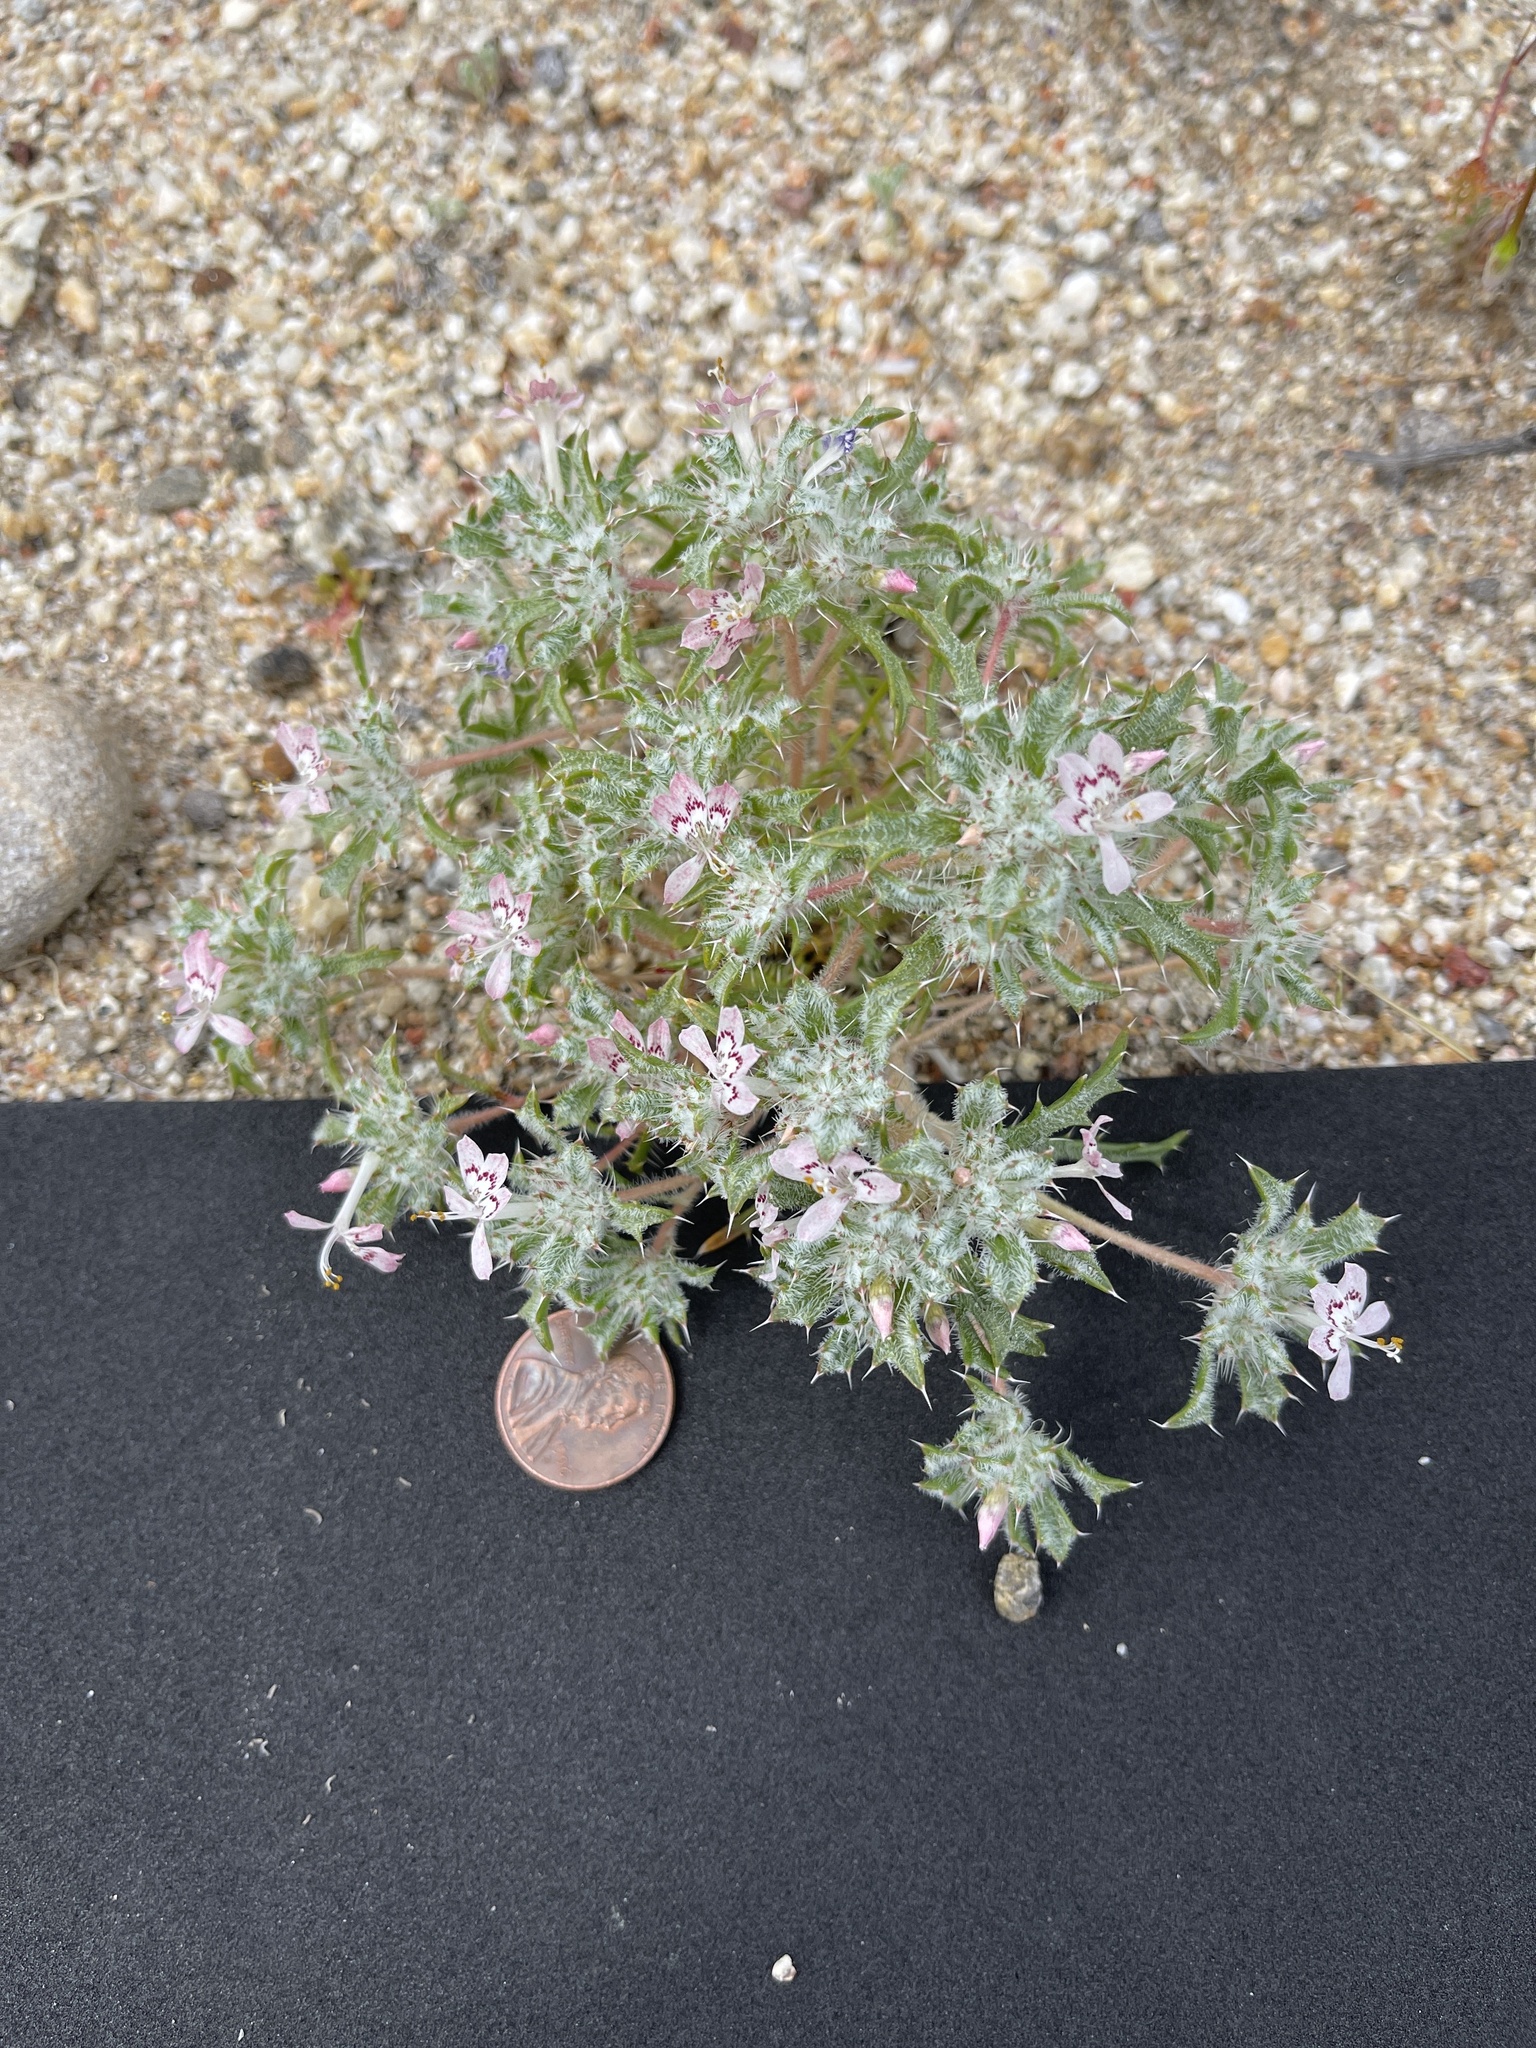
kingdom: Plantae
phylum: Tracheophyta
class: Magnoliopsida
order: Ericales
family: Polemoniaceae
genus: Loeseliastrum
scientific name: Loeseliastrum matthewsii
